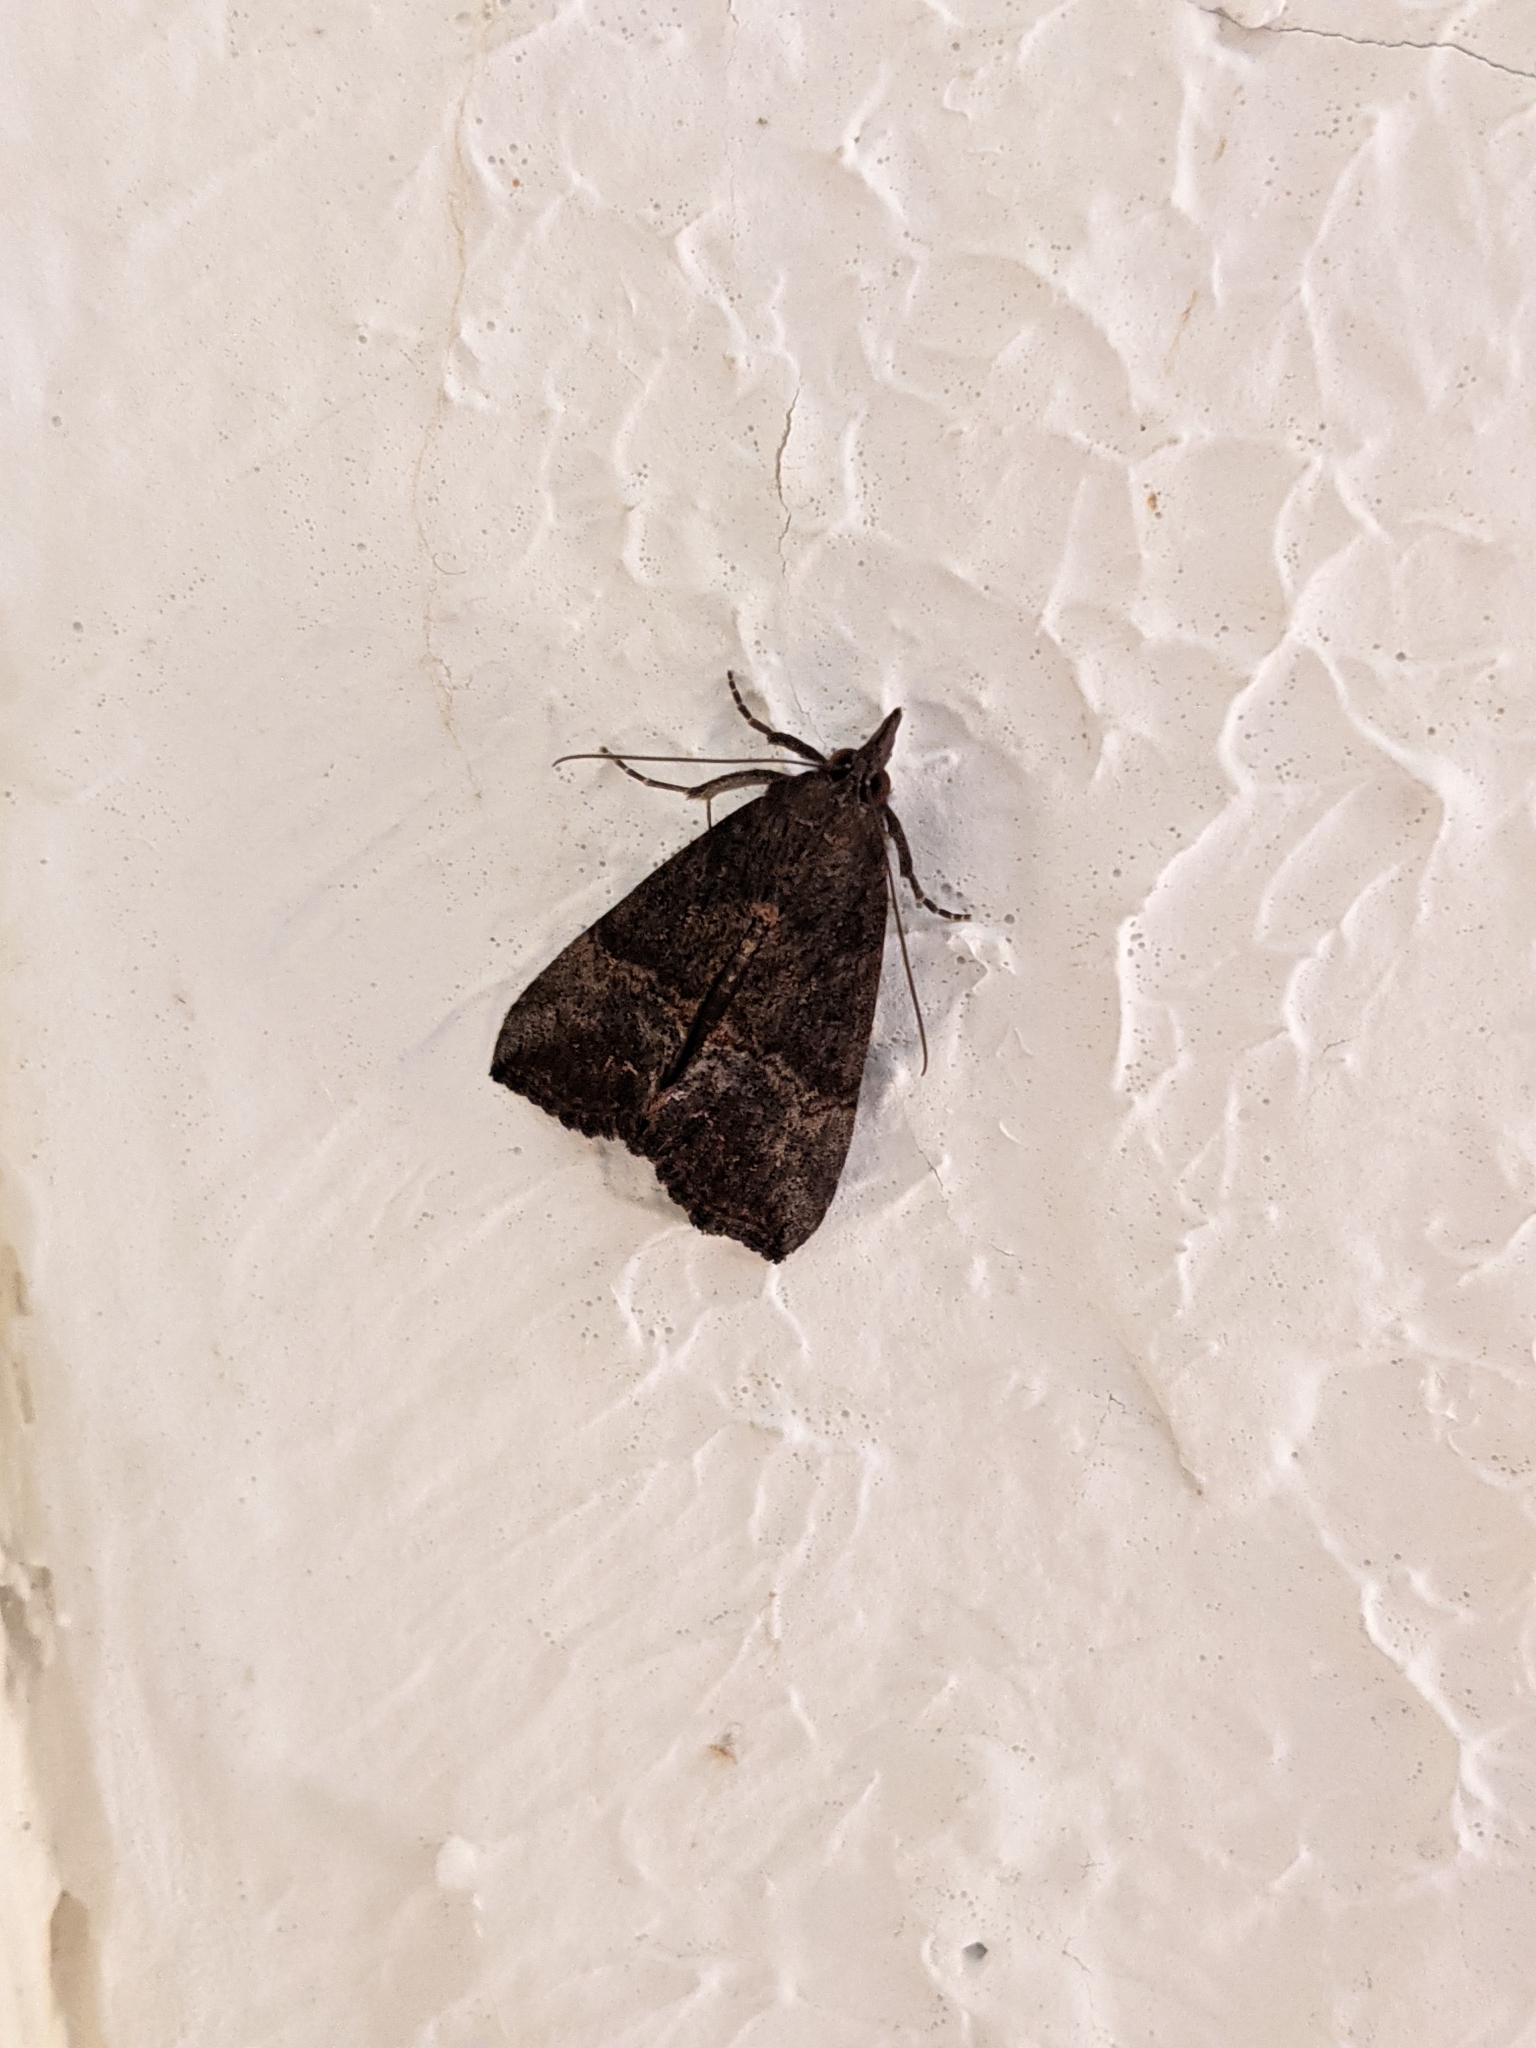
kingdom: Animalia
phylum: Arthropoda
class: Insecta
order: Lepidoptera
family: Erebidae
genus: Hypena
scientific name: Hypena scabra
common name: Green cloverworm
